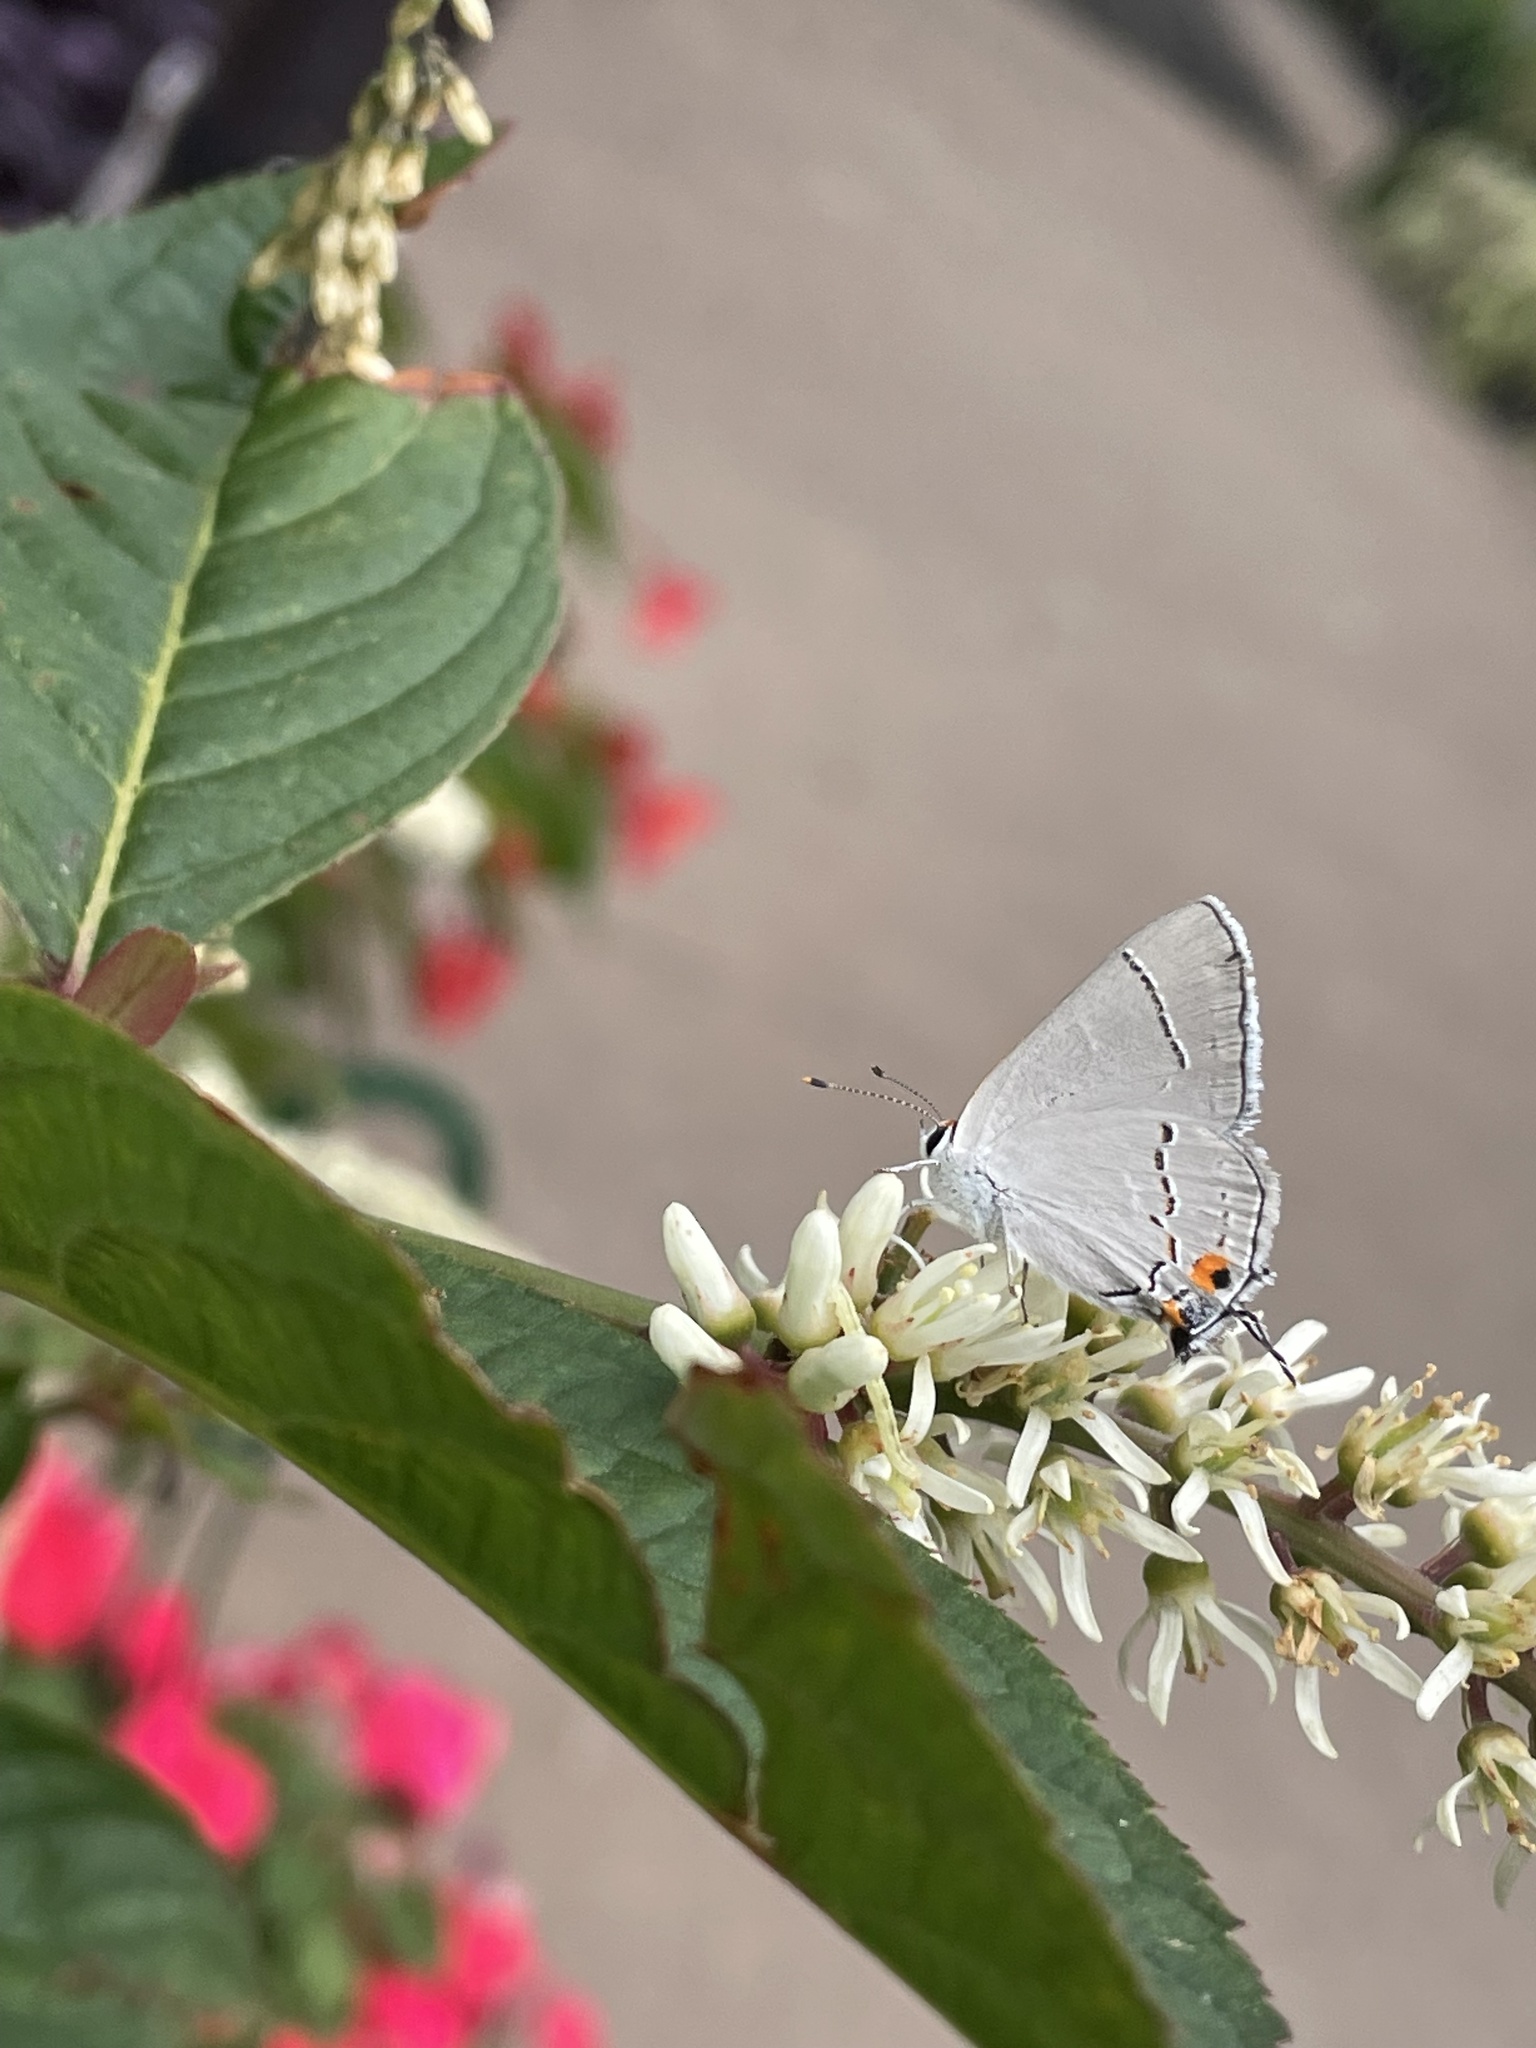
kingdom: Animalia
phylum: Arthropoda
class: Insecta
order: Lepidoptera
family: Lycaenidae
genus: Strymon
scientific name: Strymon melinus
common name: Gray hairstreak
